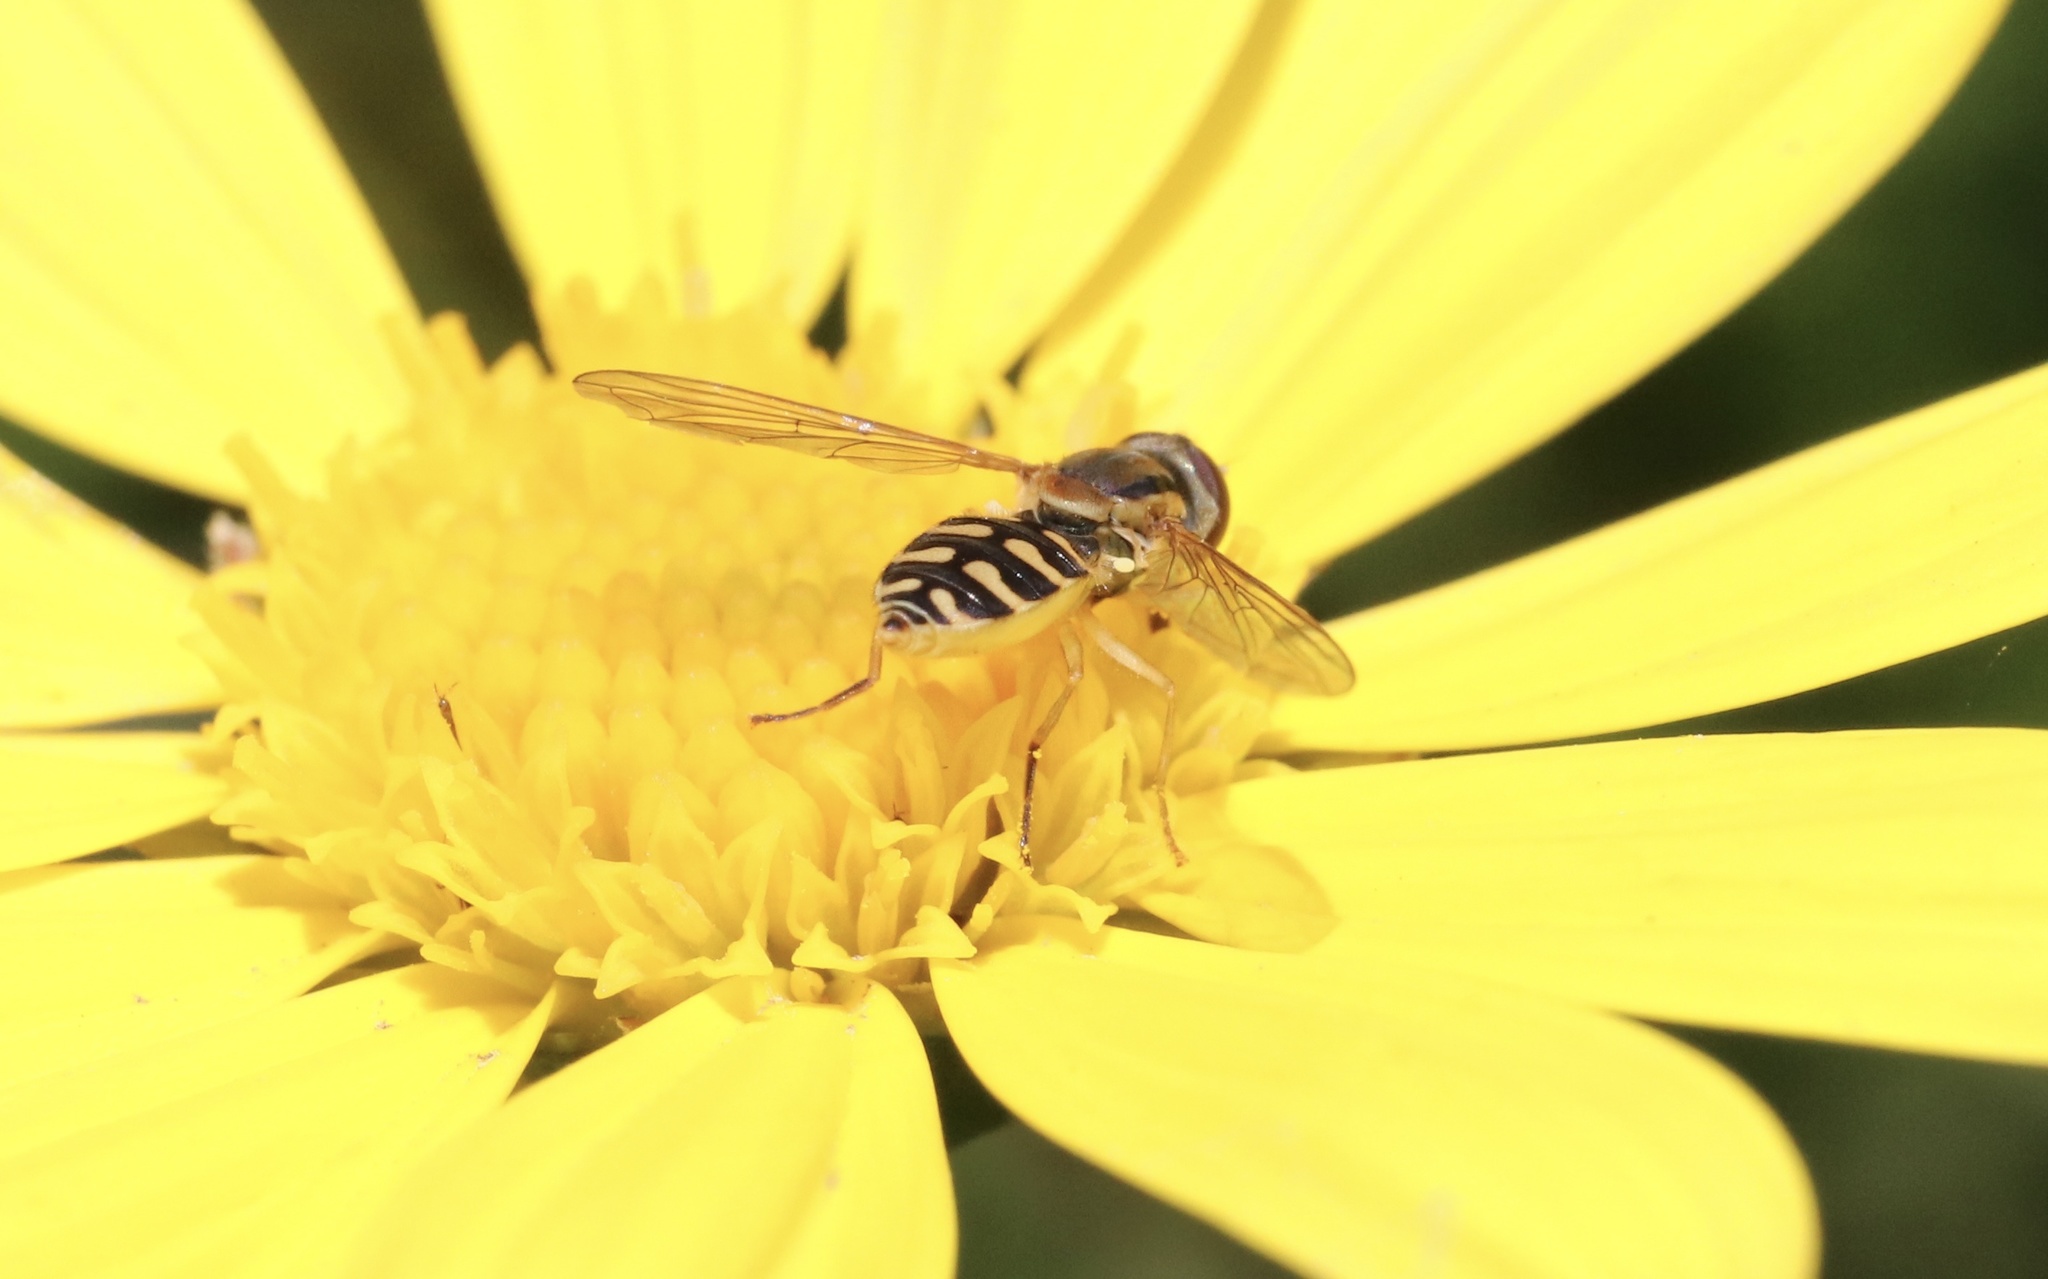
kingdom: Animalia
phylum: Arthropoda
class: Insecta
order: Diptera
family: Syrphidae
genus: Toxomerus
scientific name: Toxomerus vertebratus
